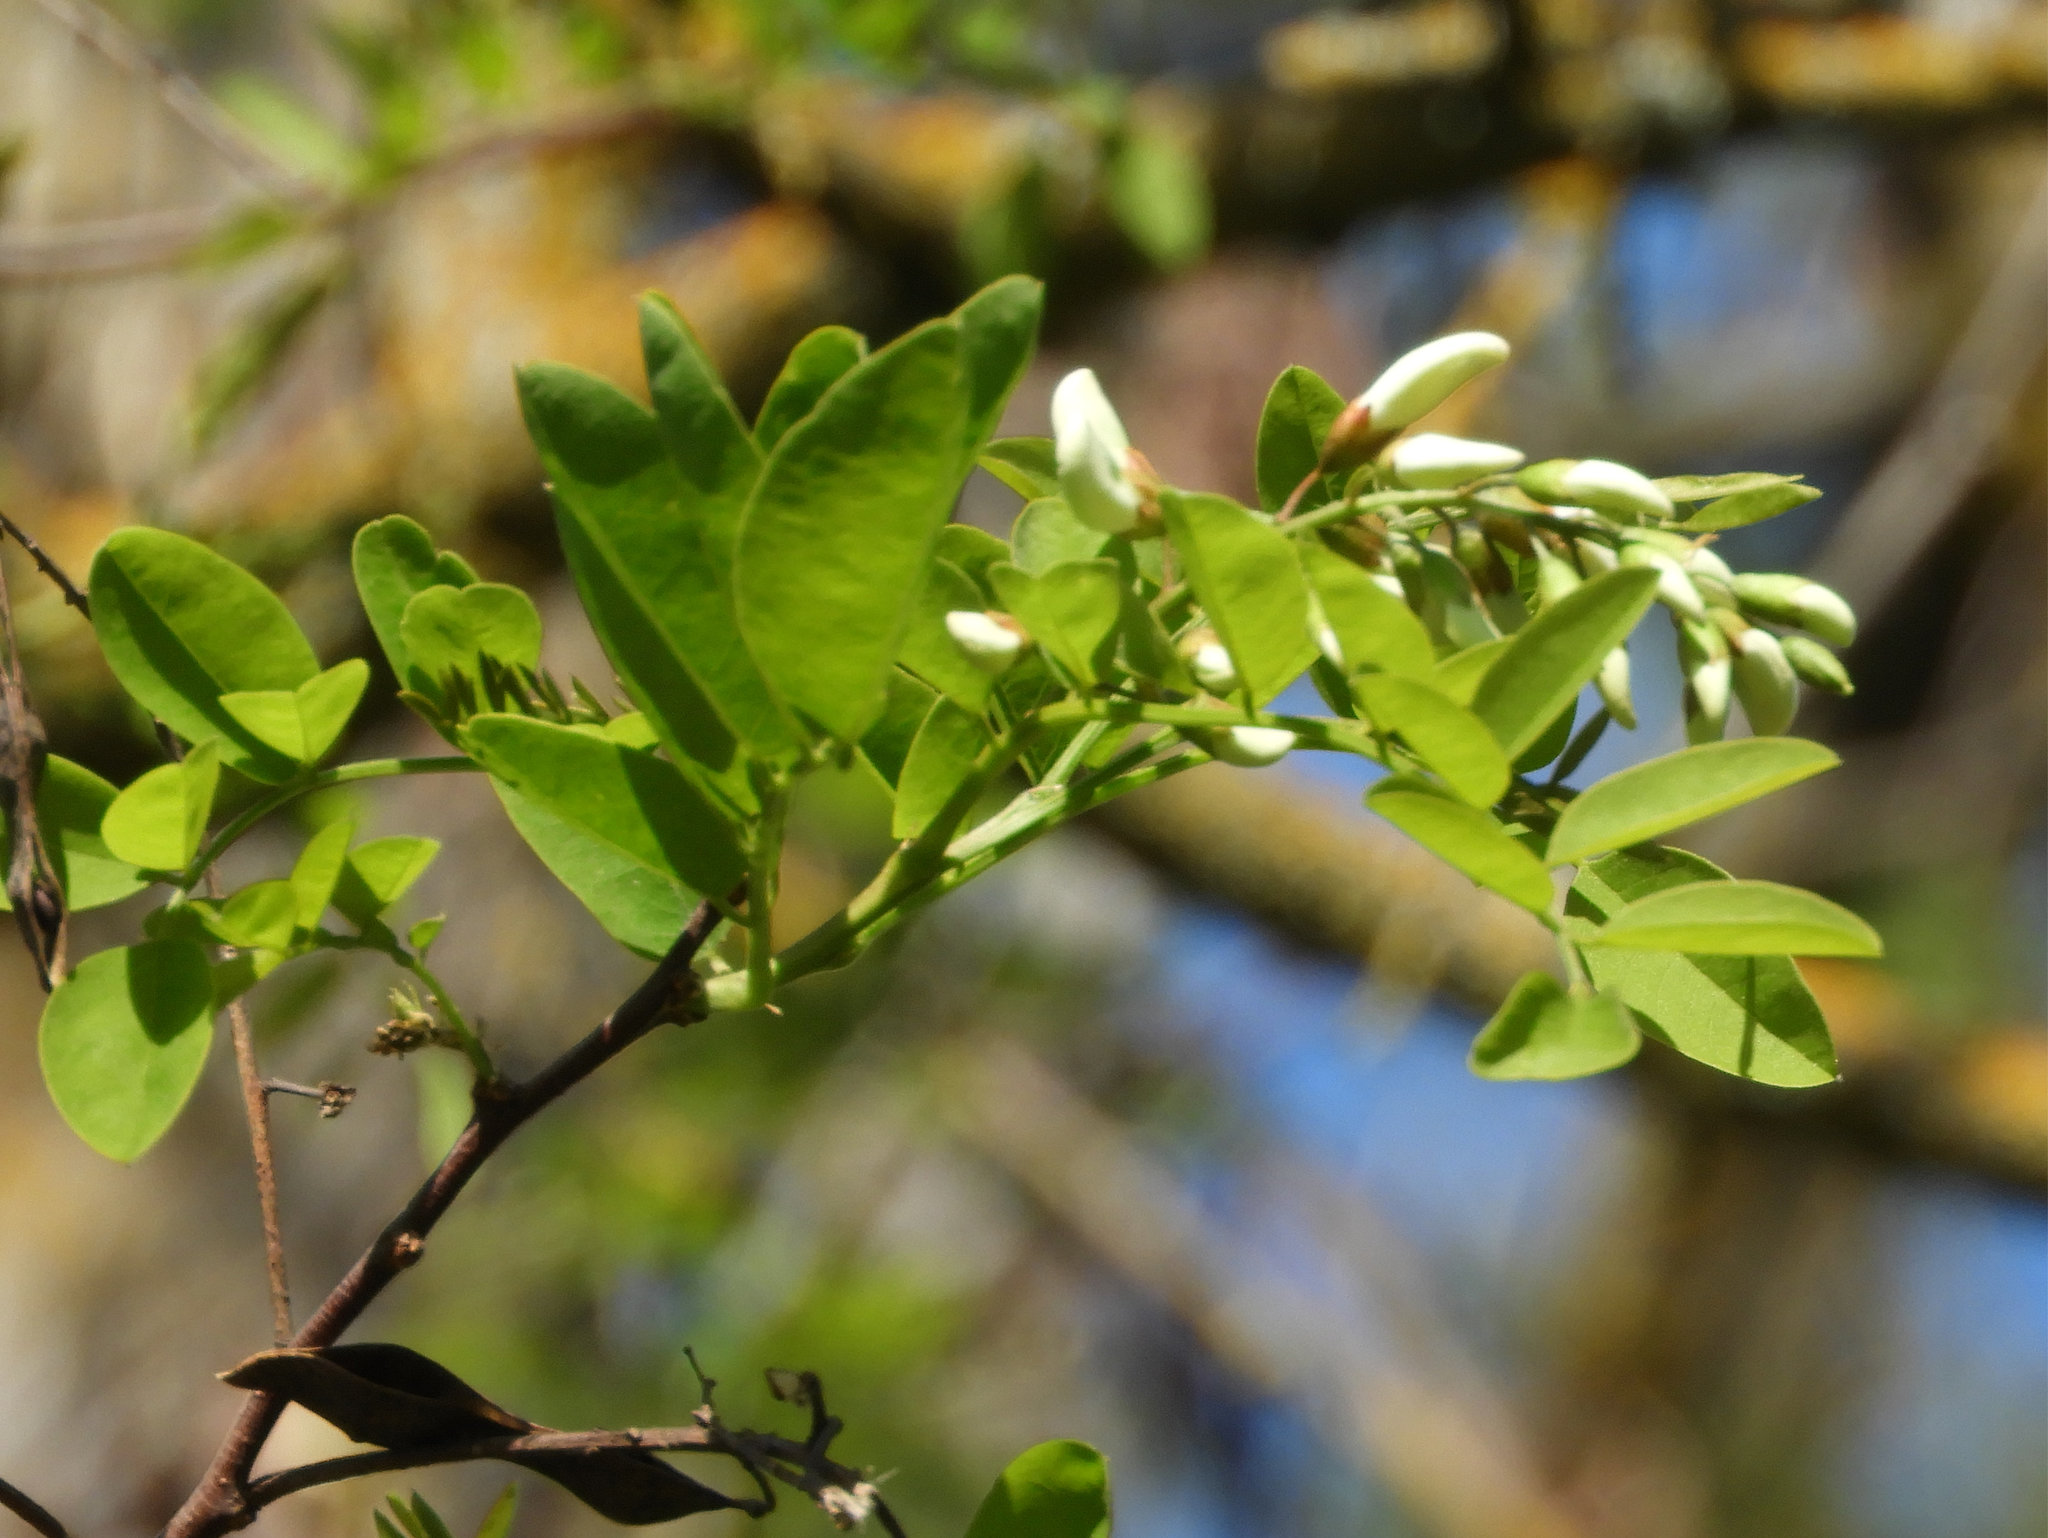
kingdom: Plantae
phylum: Tracheophyta
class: Magnoliopsida
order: Fabales
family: Fabaceae
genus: Robinia
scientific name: Robinia pseudoacacia
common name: Black locust
